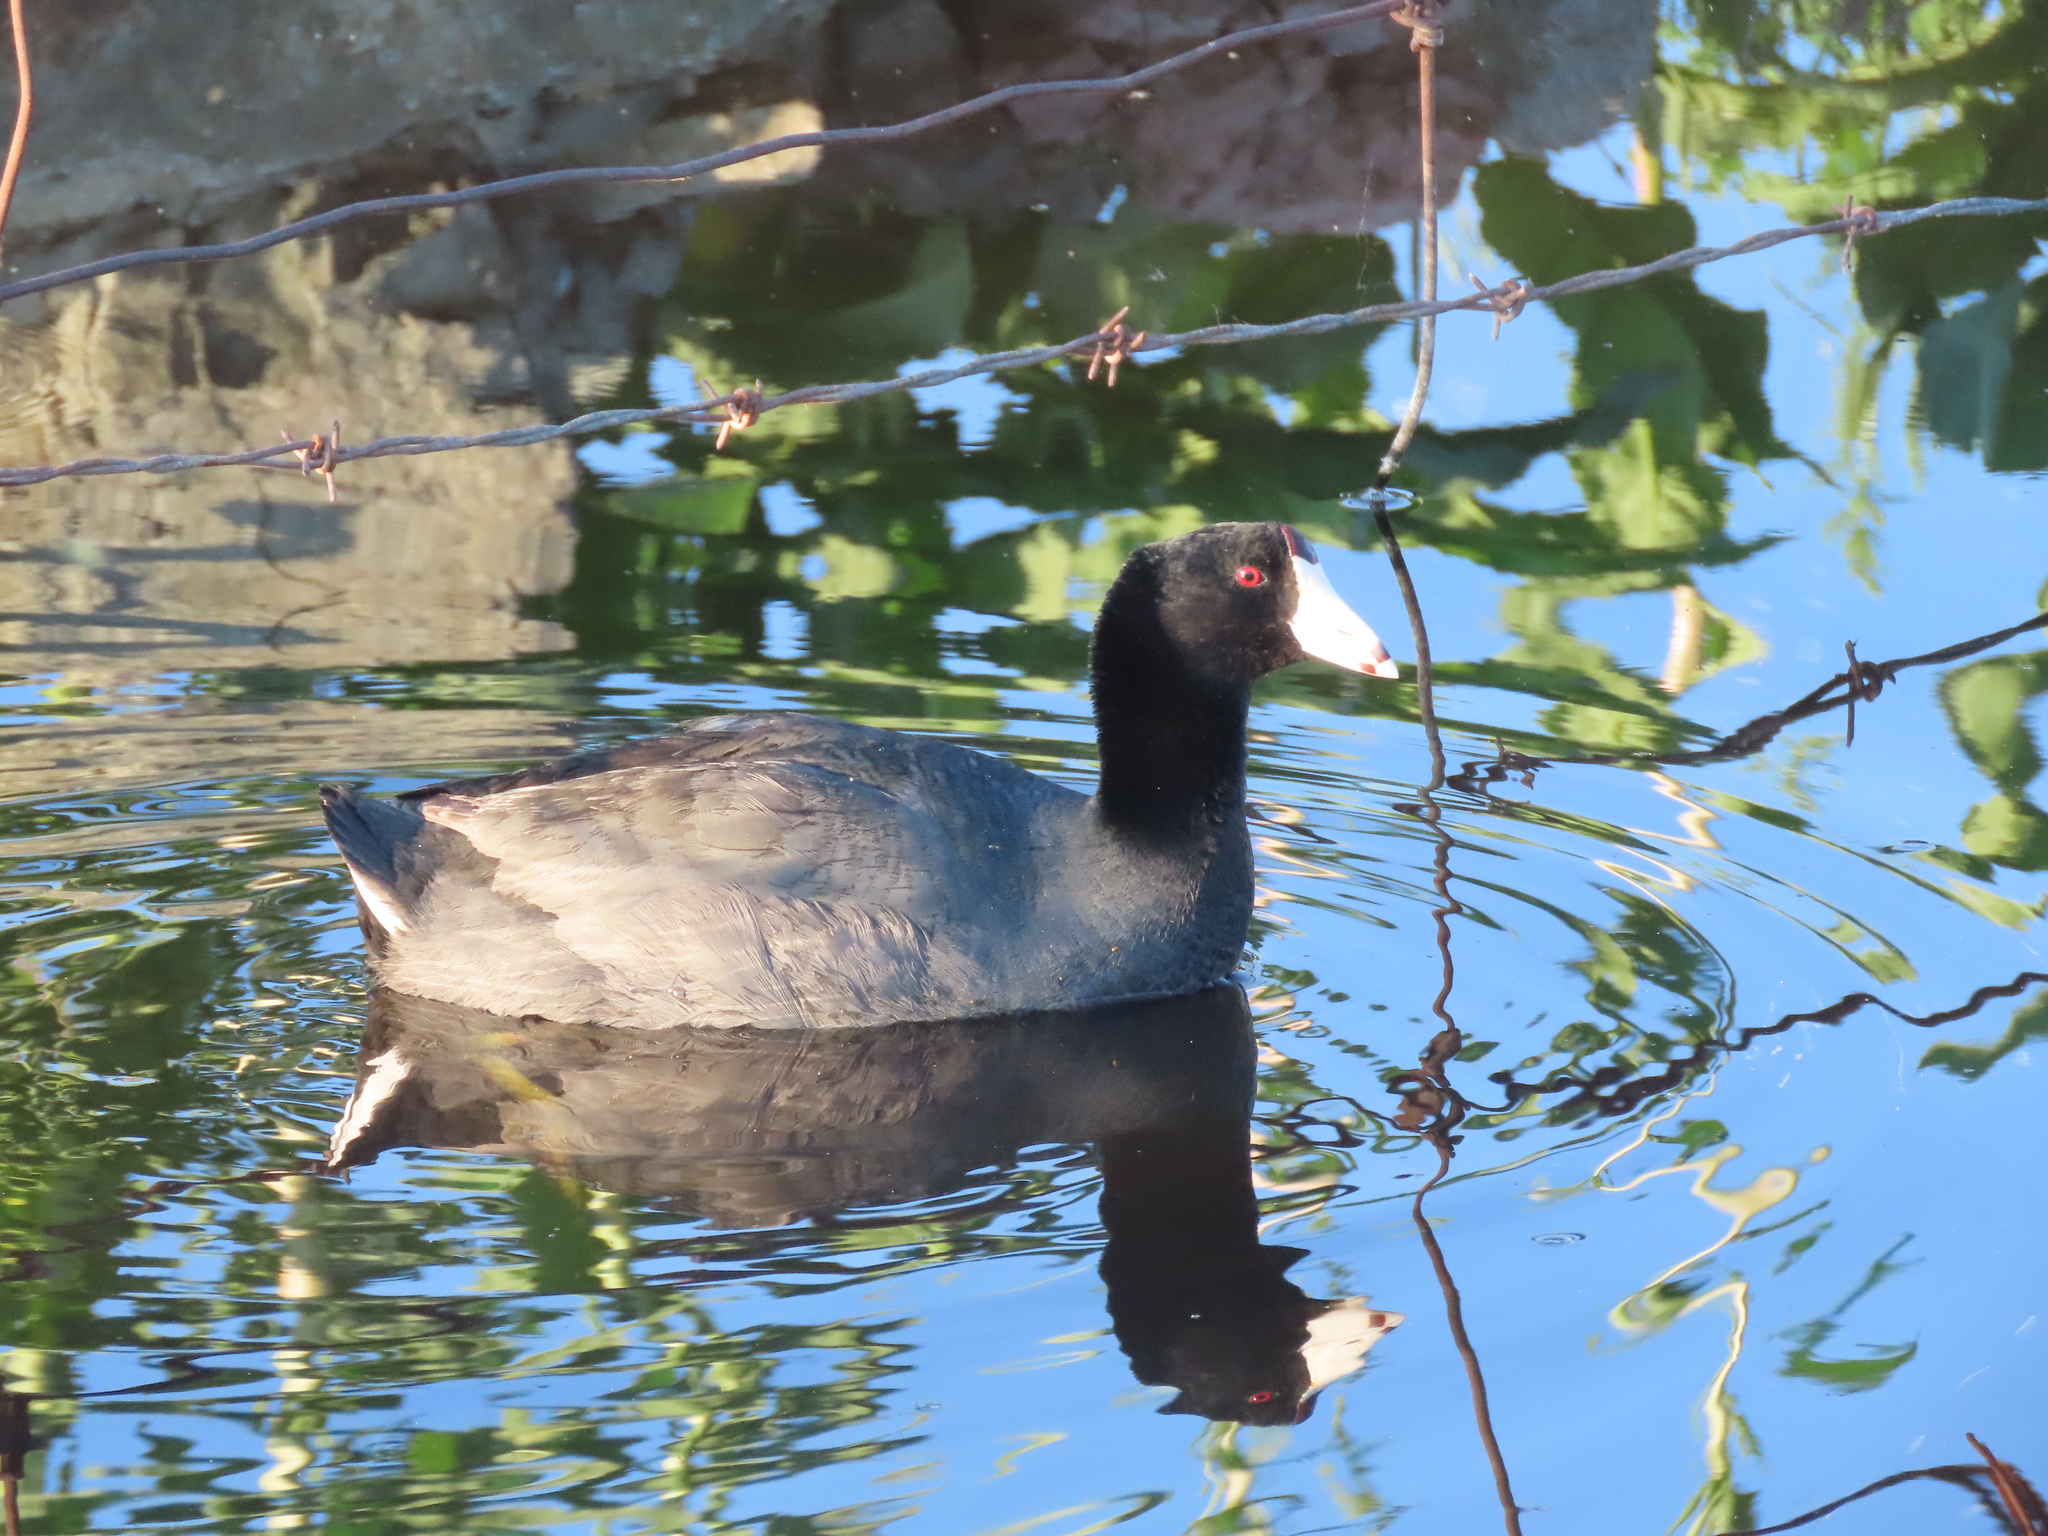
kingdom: Animalia
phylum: Chordata
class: Aves
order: Gruiformes
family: Rallidae
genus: Fulica
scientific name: Fulica americana
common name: American coot
